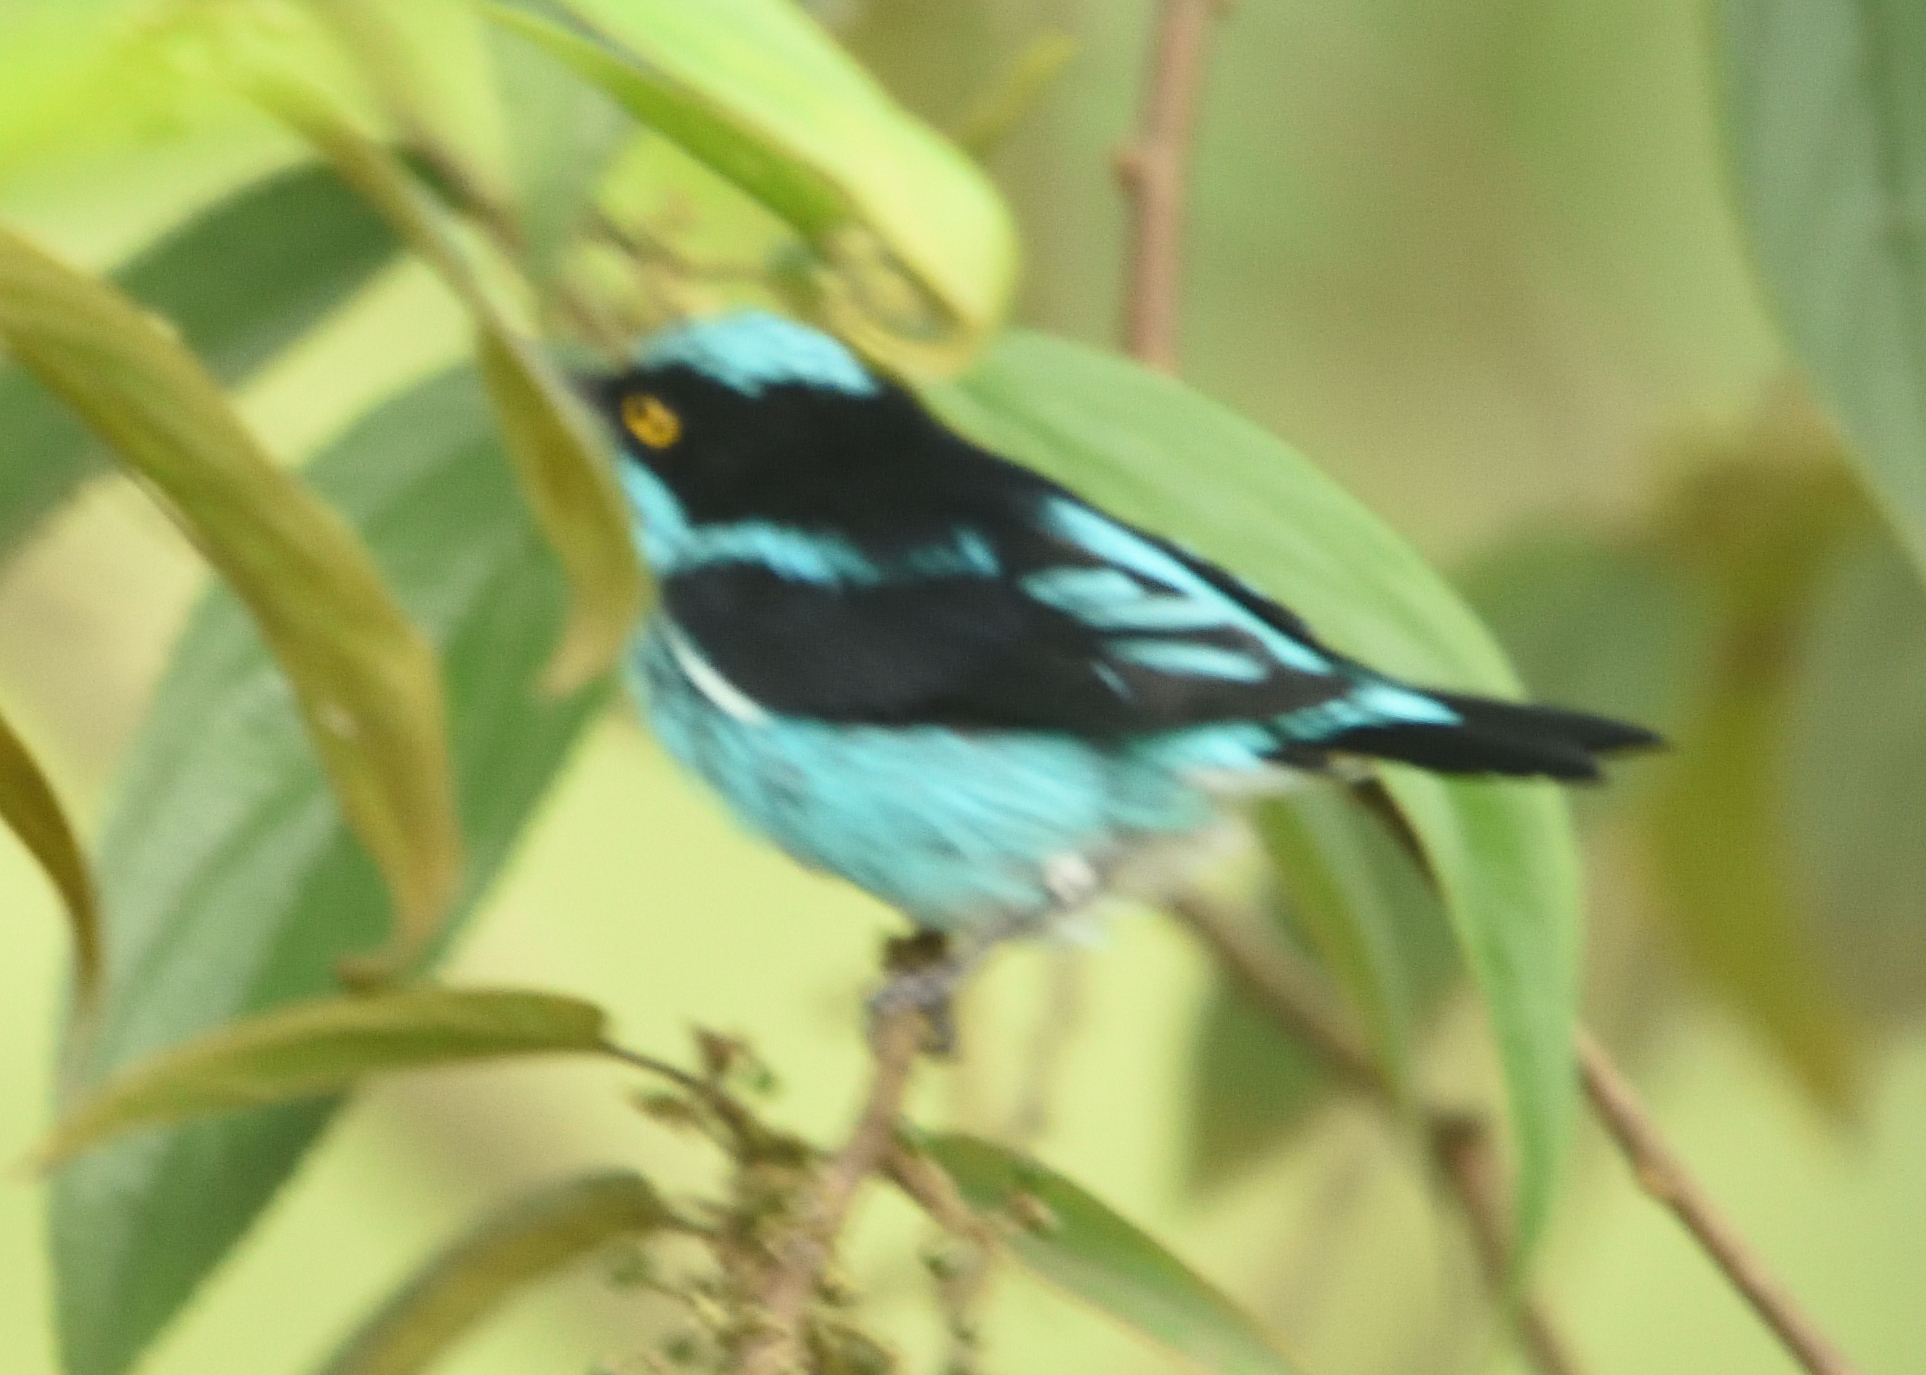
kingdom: Animalia
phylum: Chordata
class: Aves
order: Passeriformes
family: Thraupidae
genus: Dacnis
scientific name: Dacnis lineata
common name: Black-faced dacnis
